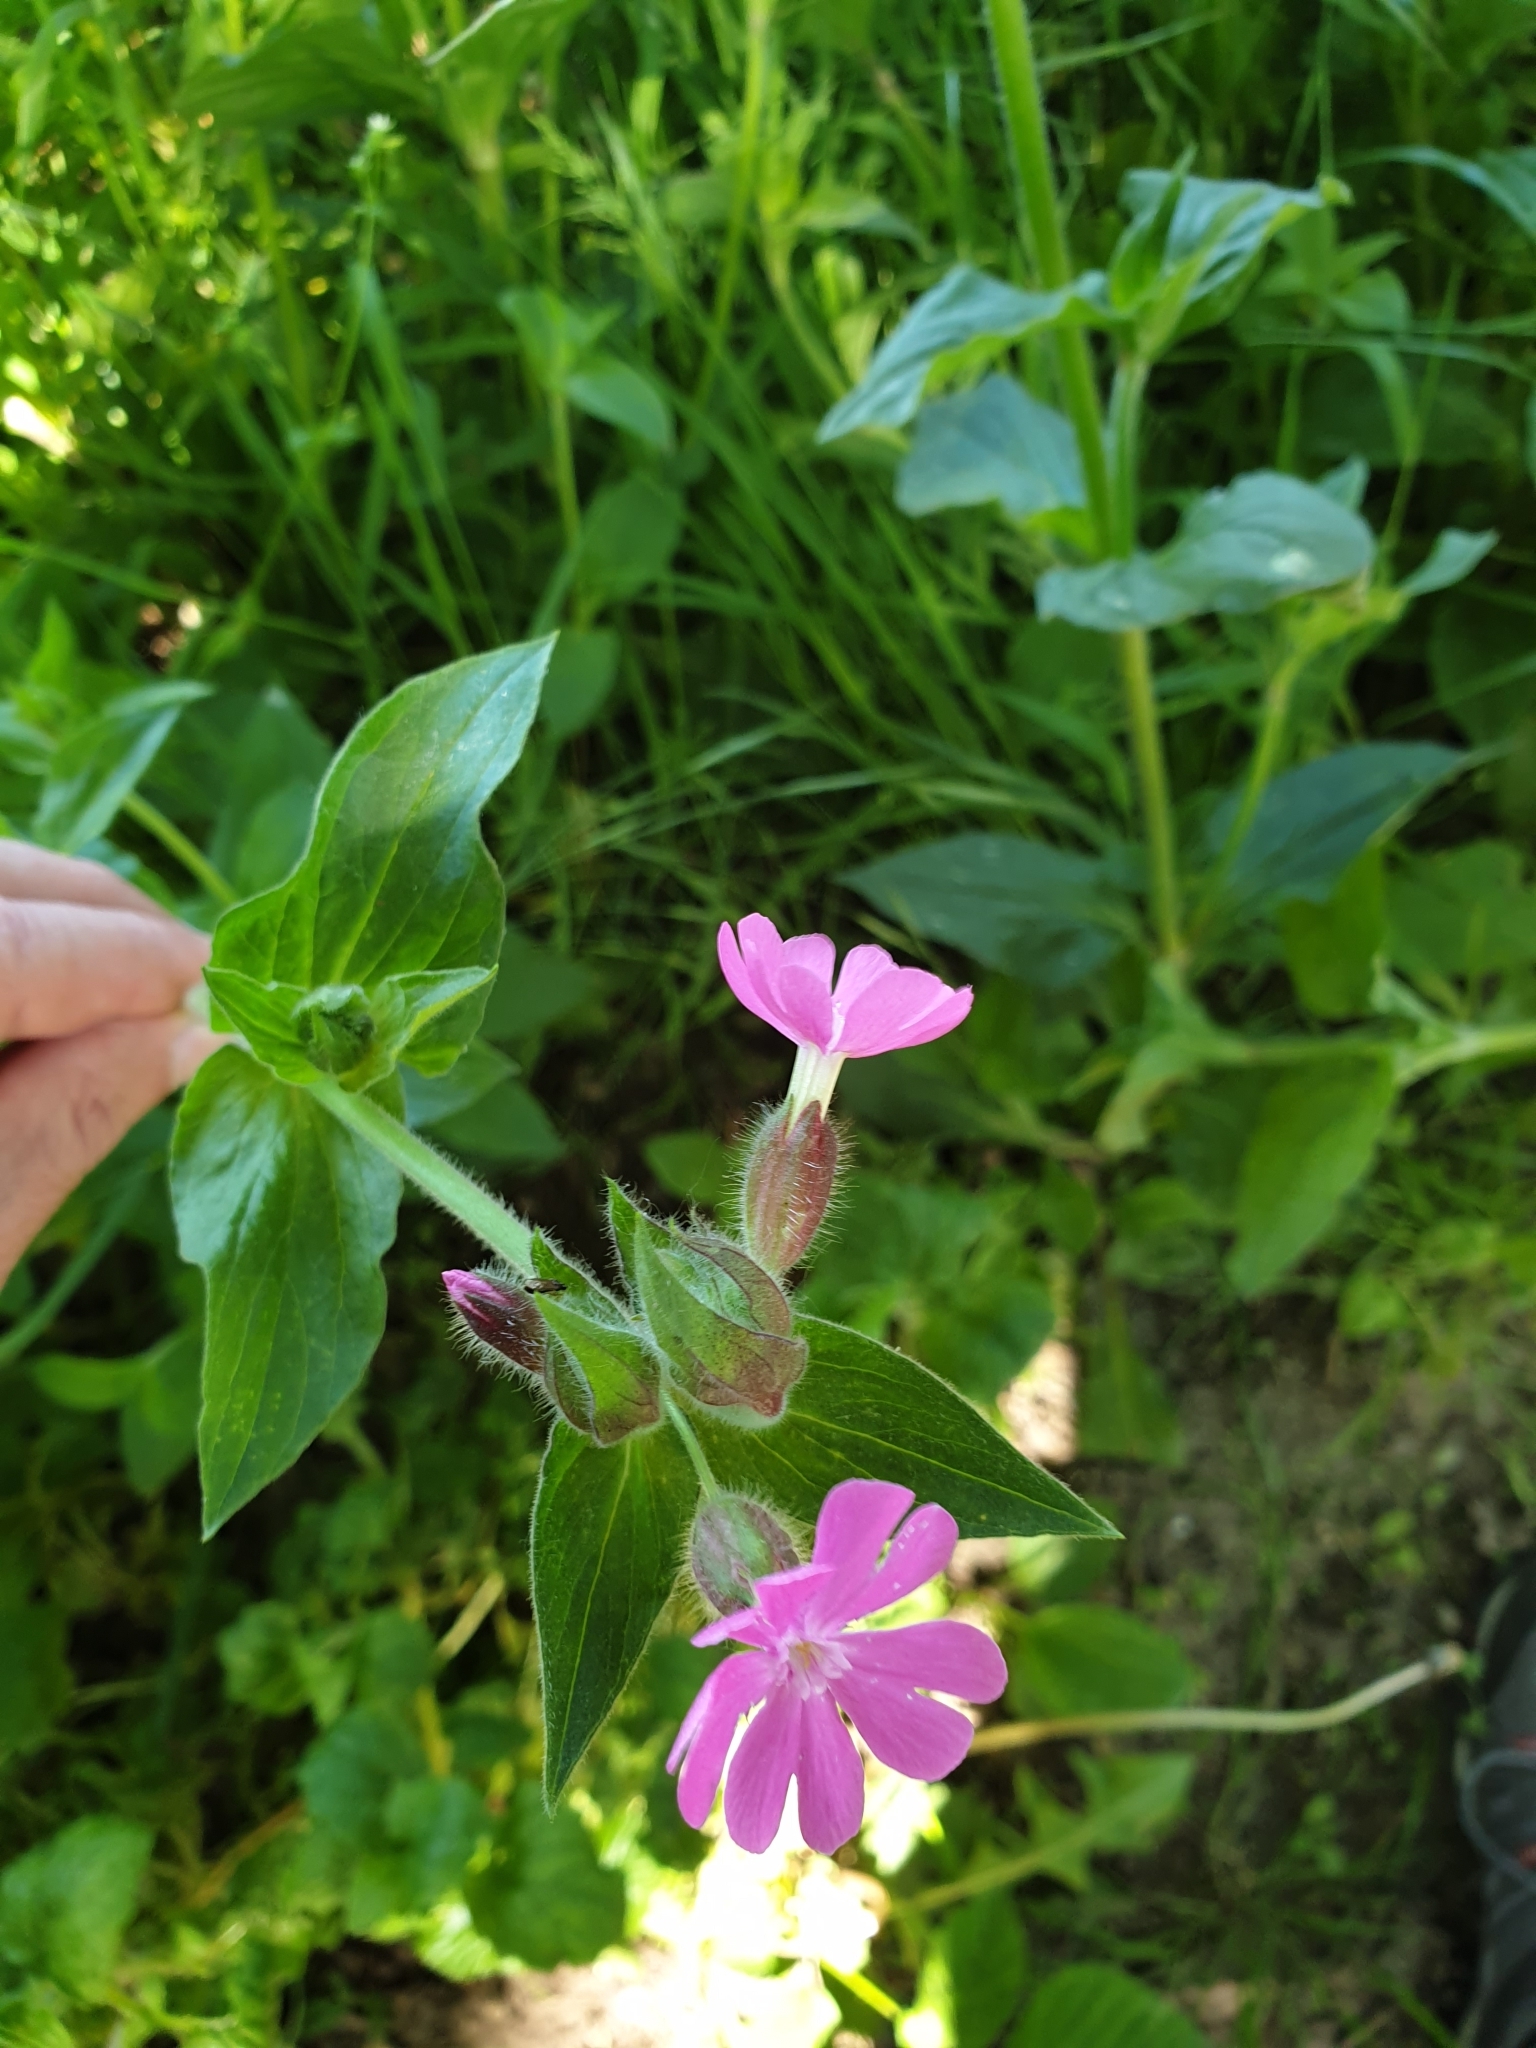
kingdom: Plantae
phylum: Tracheophyta
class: Magnoliopsida
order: Caryophyllales
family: Caryophyllaceae
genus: Silene
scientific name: Silene dioica
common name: Red campion
